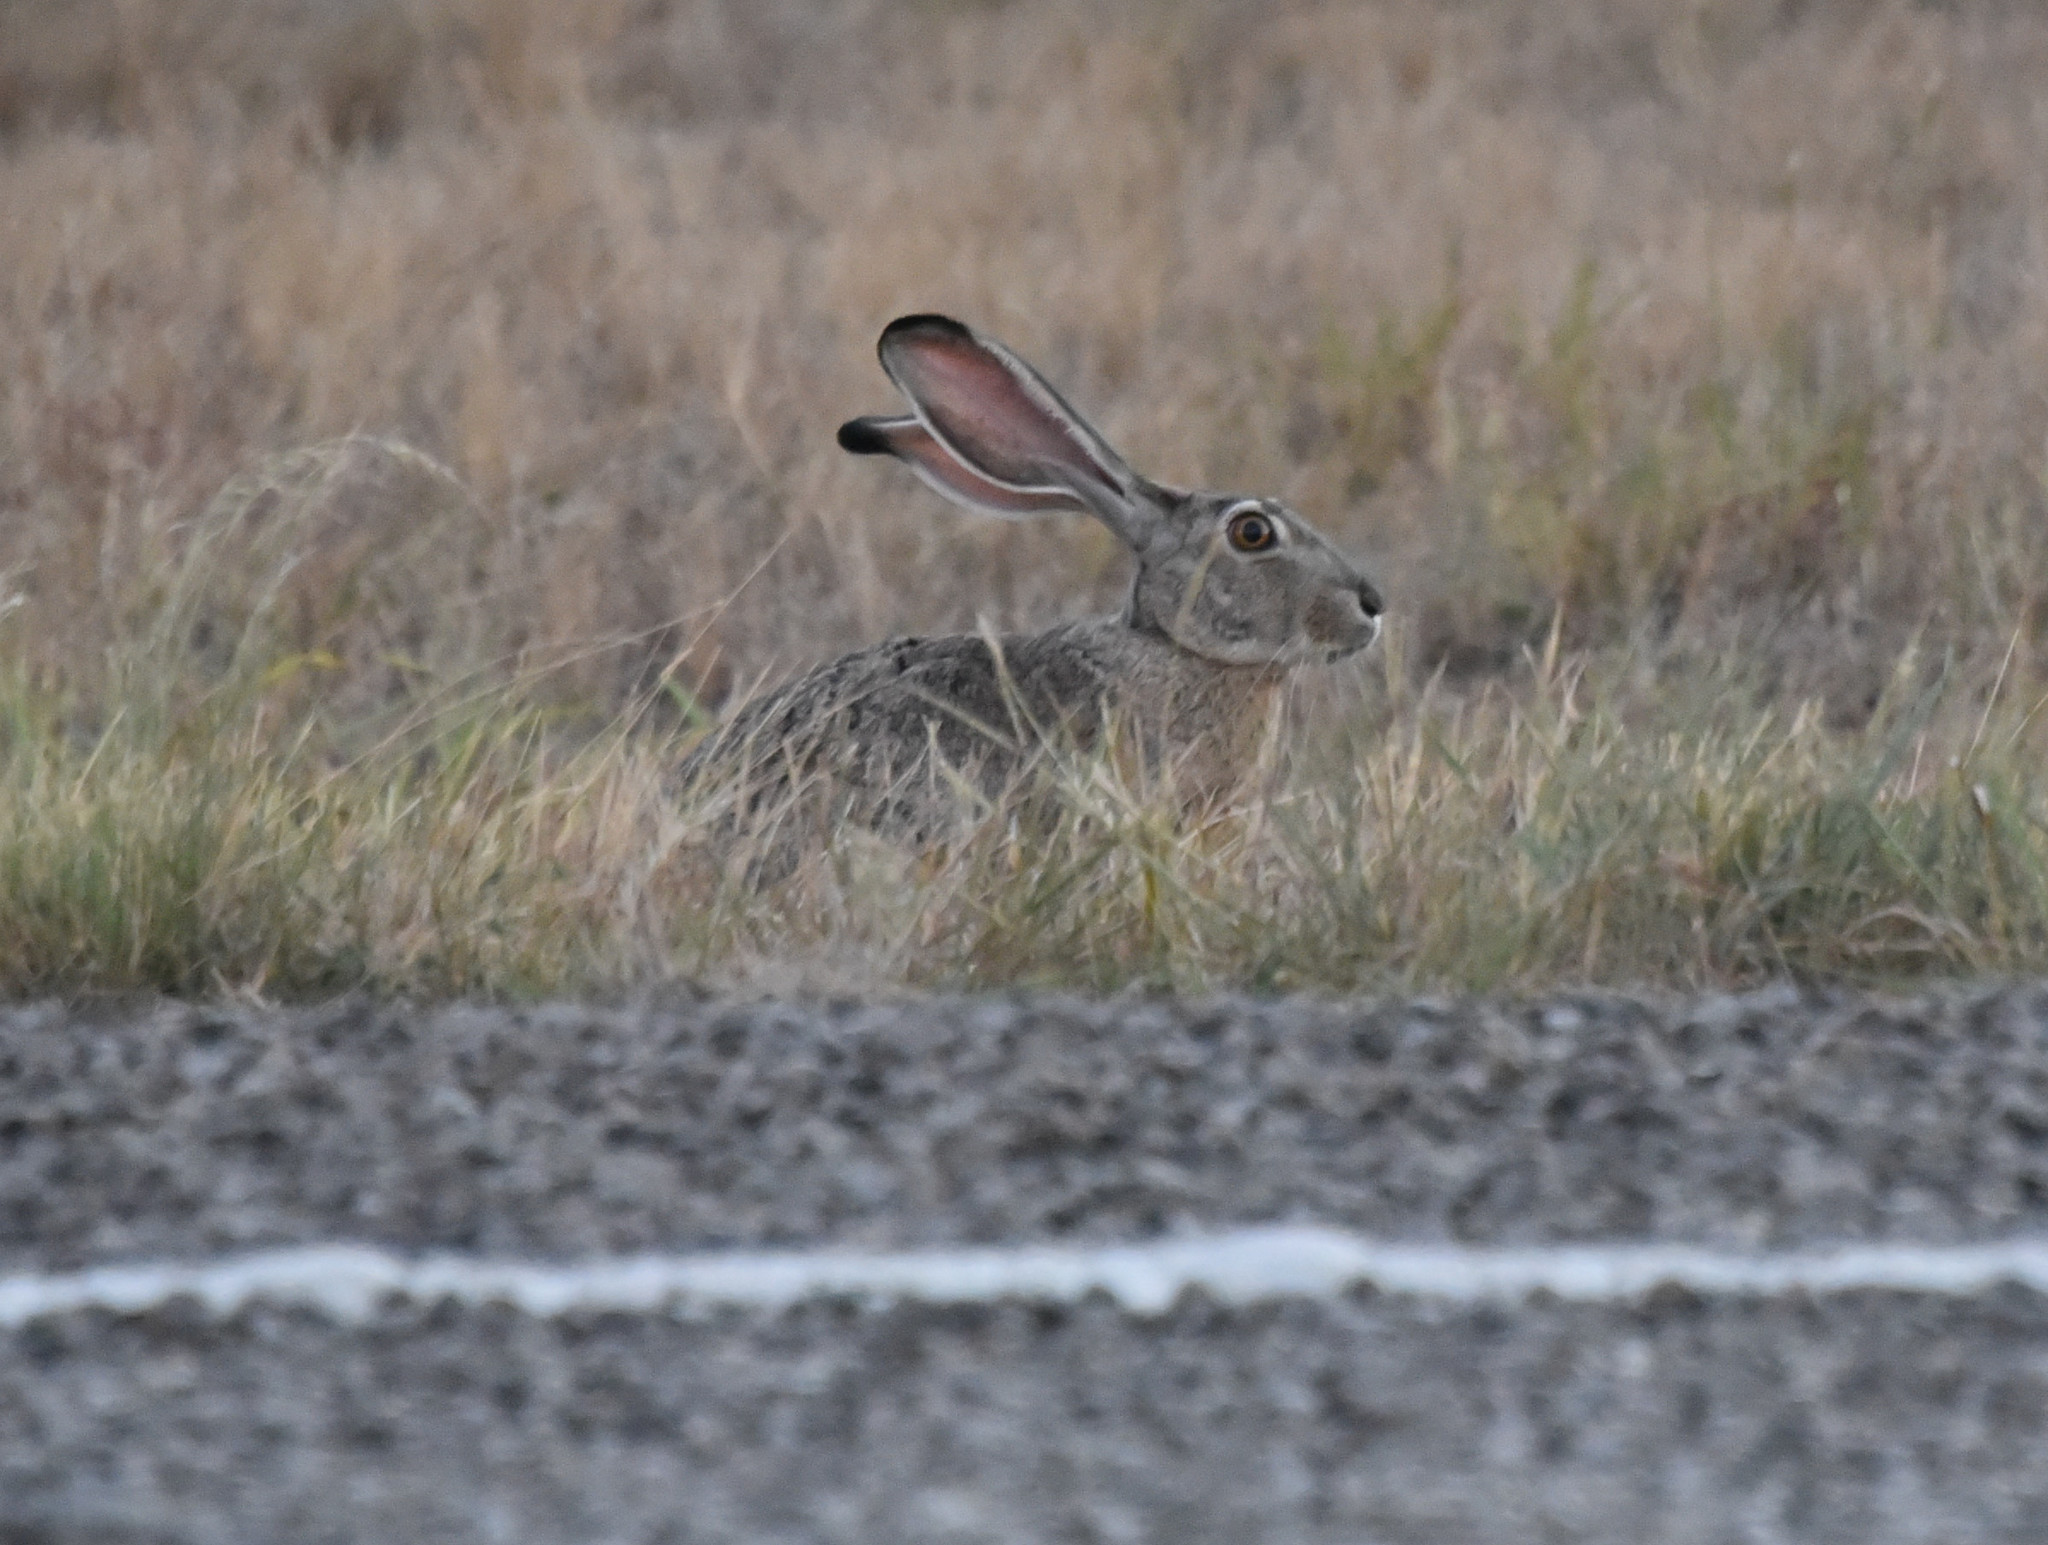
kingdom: Animalia
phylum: Chordata
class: Mammalia
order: Lagomorpha
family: Leporidae
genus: Lepus
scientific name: Lepus californicus
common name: Black-tailed jackrabbit
